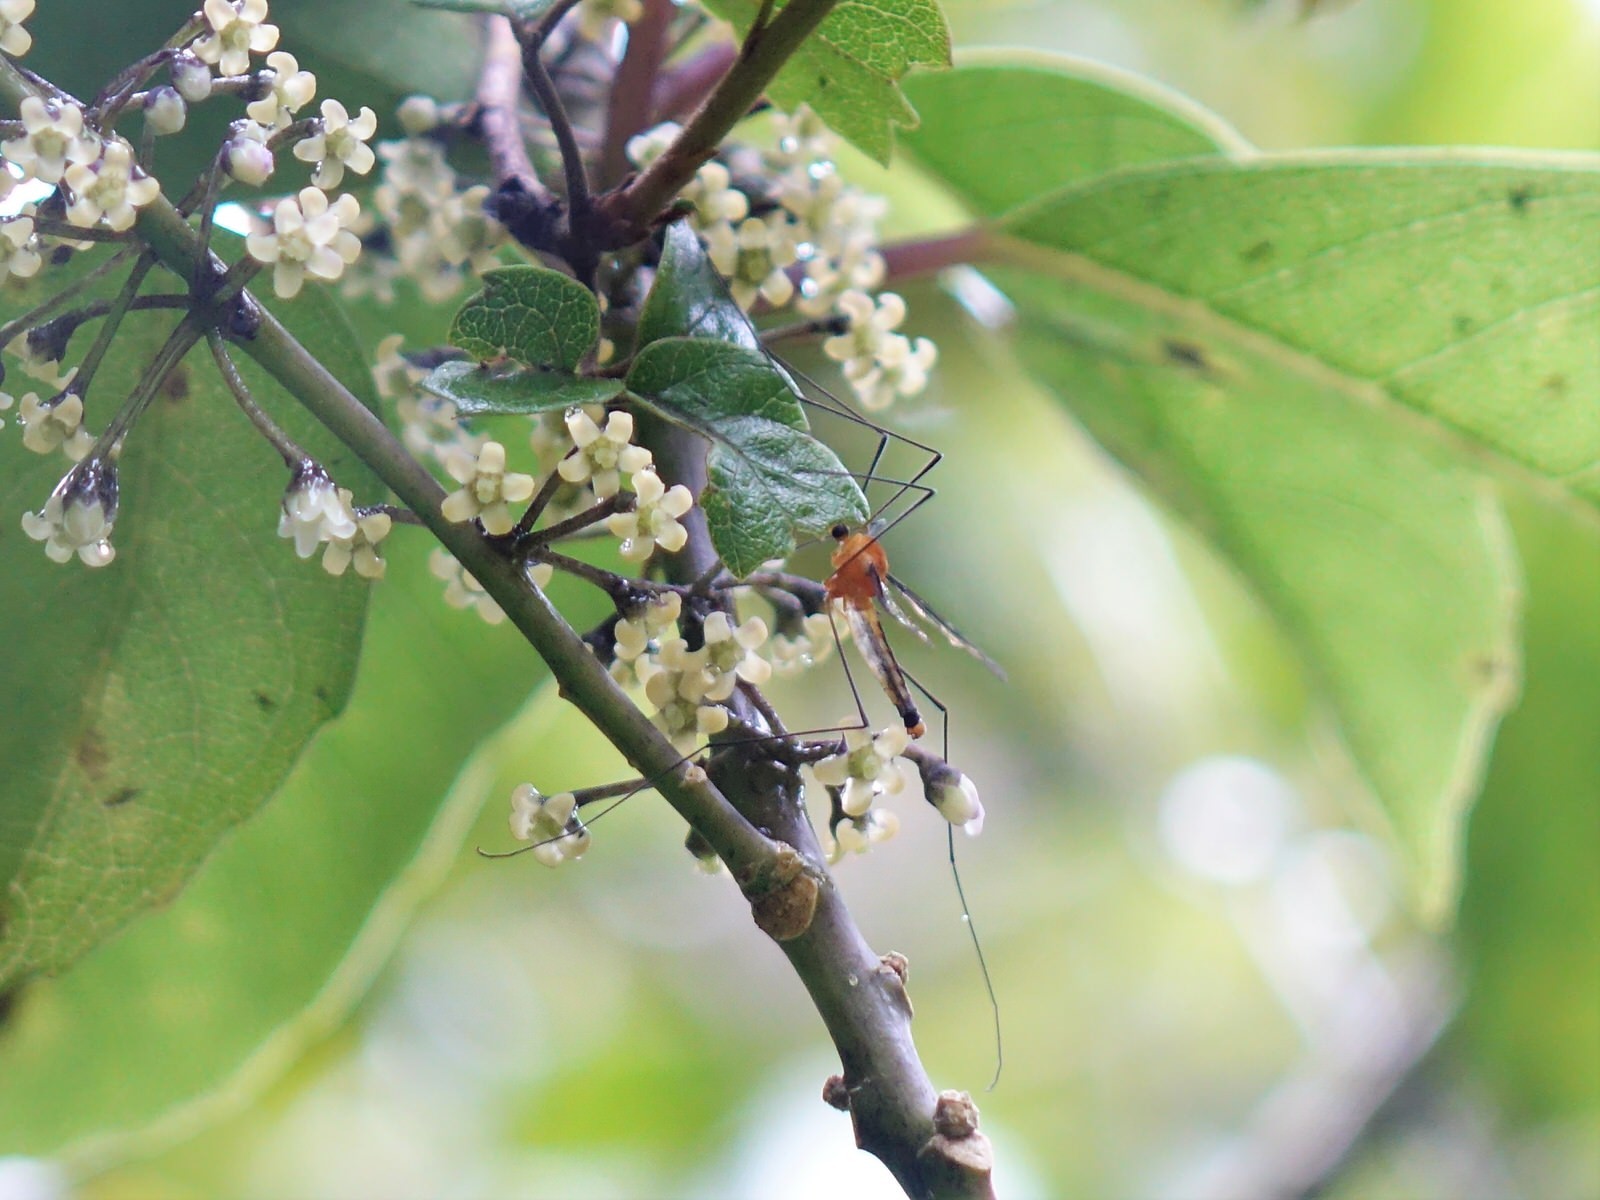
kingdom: Animalia
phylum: Arthropoda
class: Insecta
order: Diptera
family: Tipulidae
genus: Aurotipula
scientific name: Aurotipula
